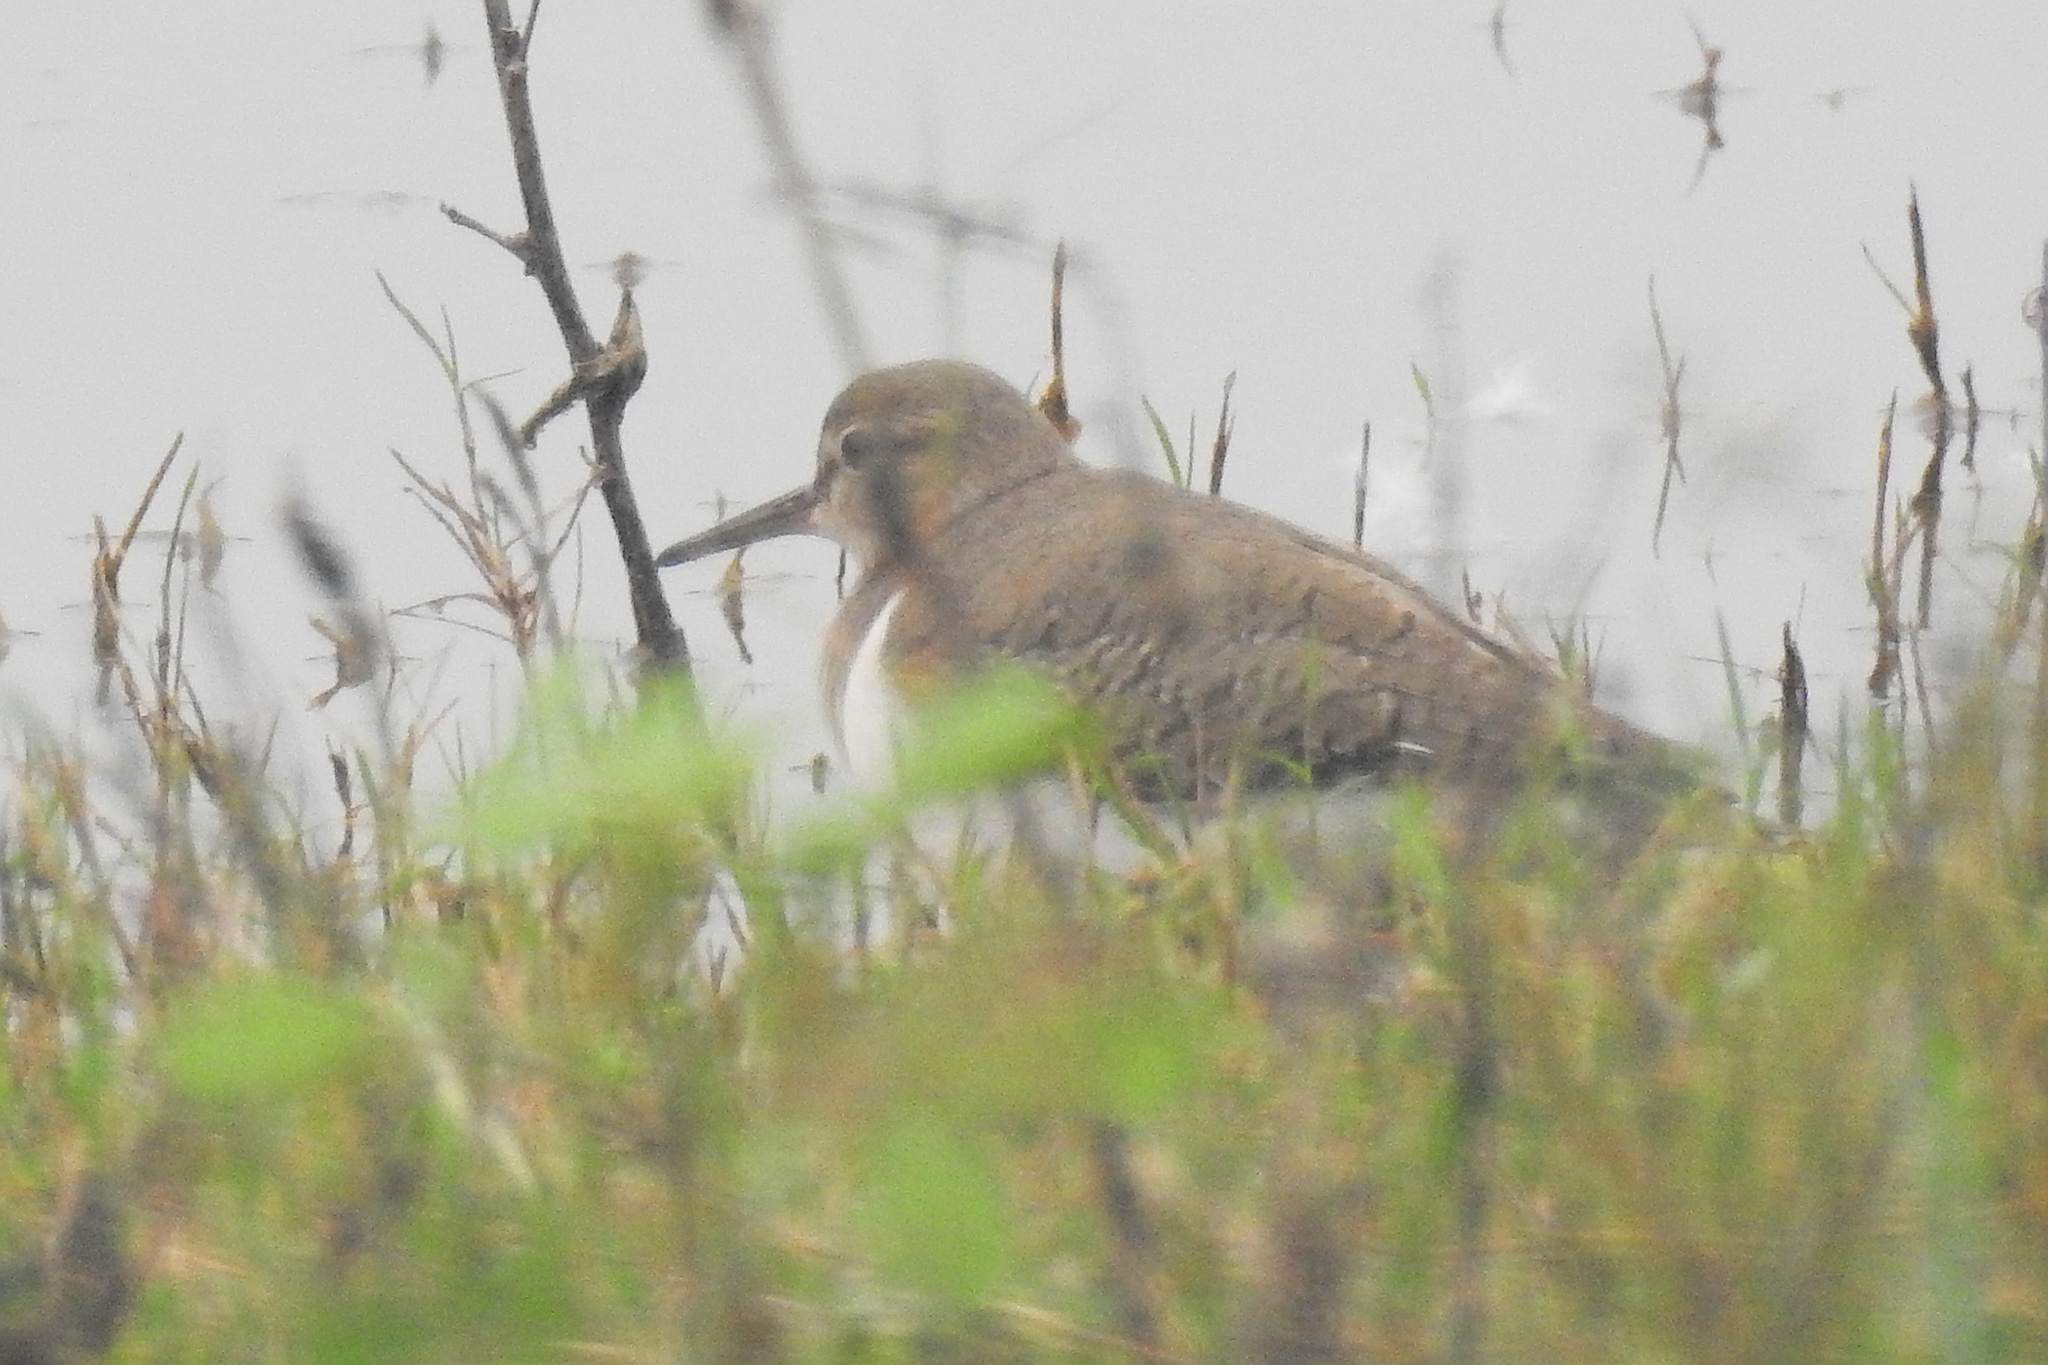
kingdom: Animalia
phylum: Chordata
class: Aves
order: Charadriiformes
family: Scolopacidae
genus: Actitis
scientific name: Actitis hypoleucos
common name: Common sandpiper
